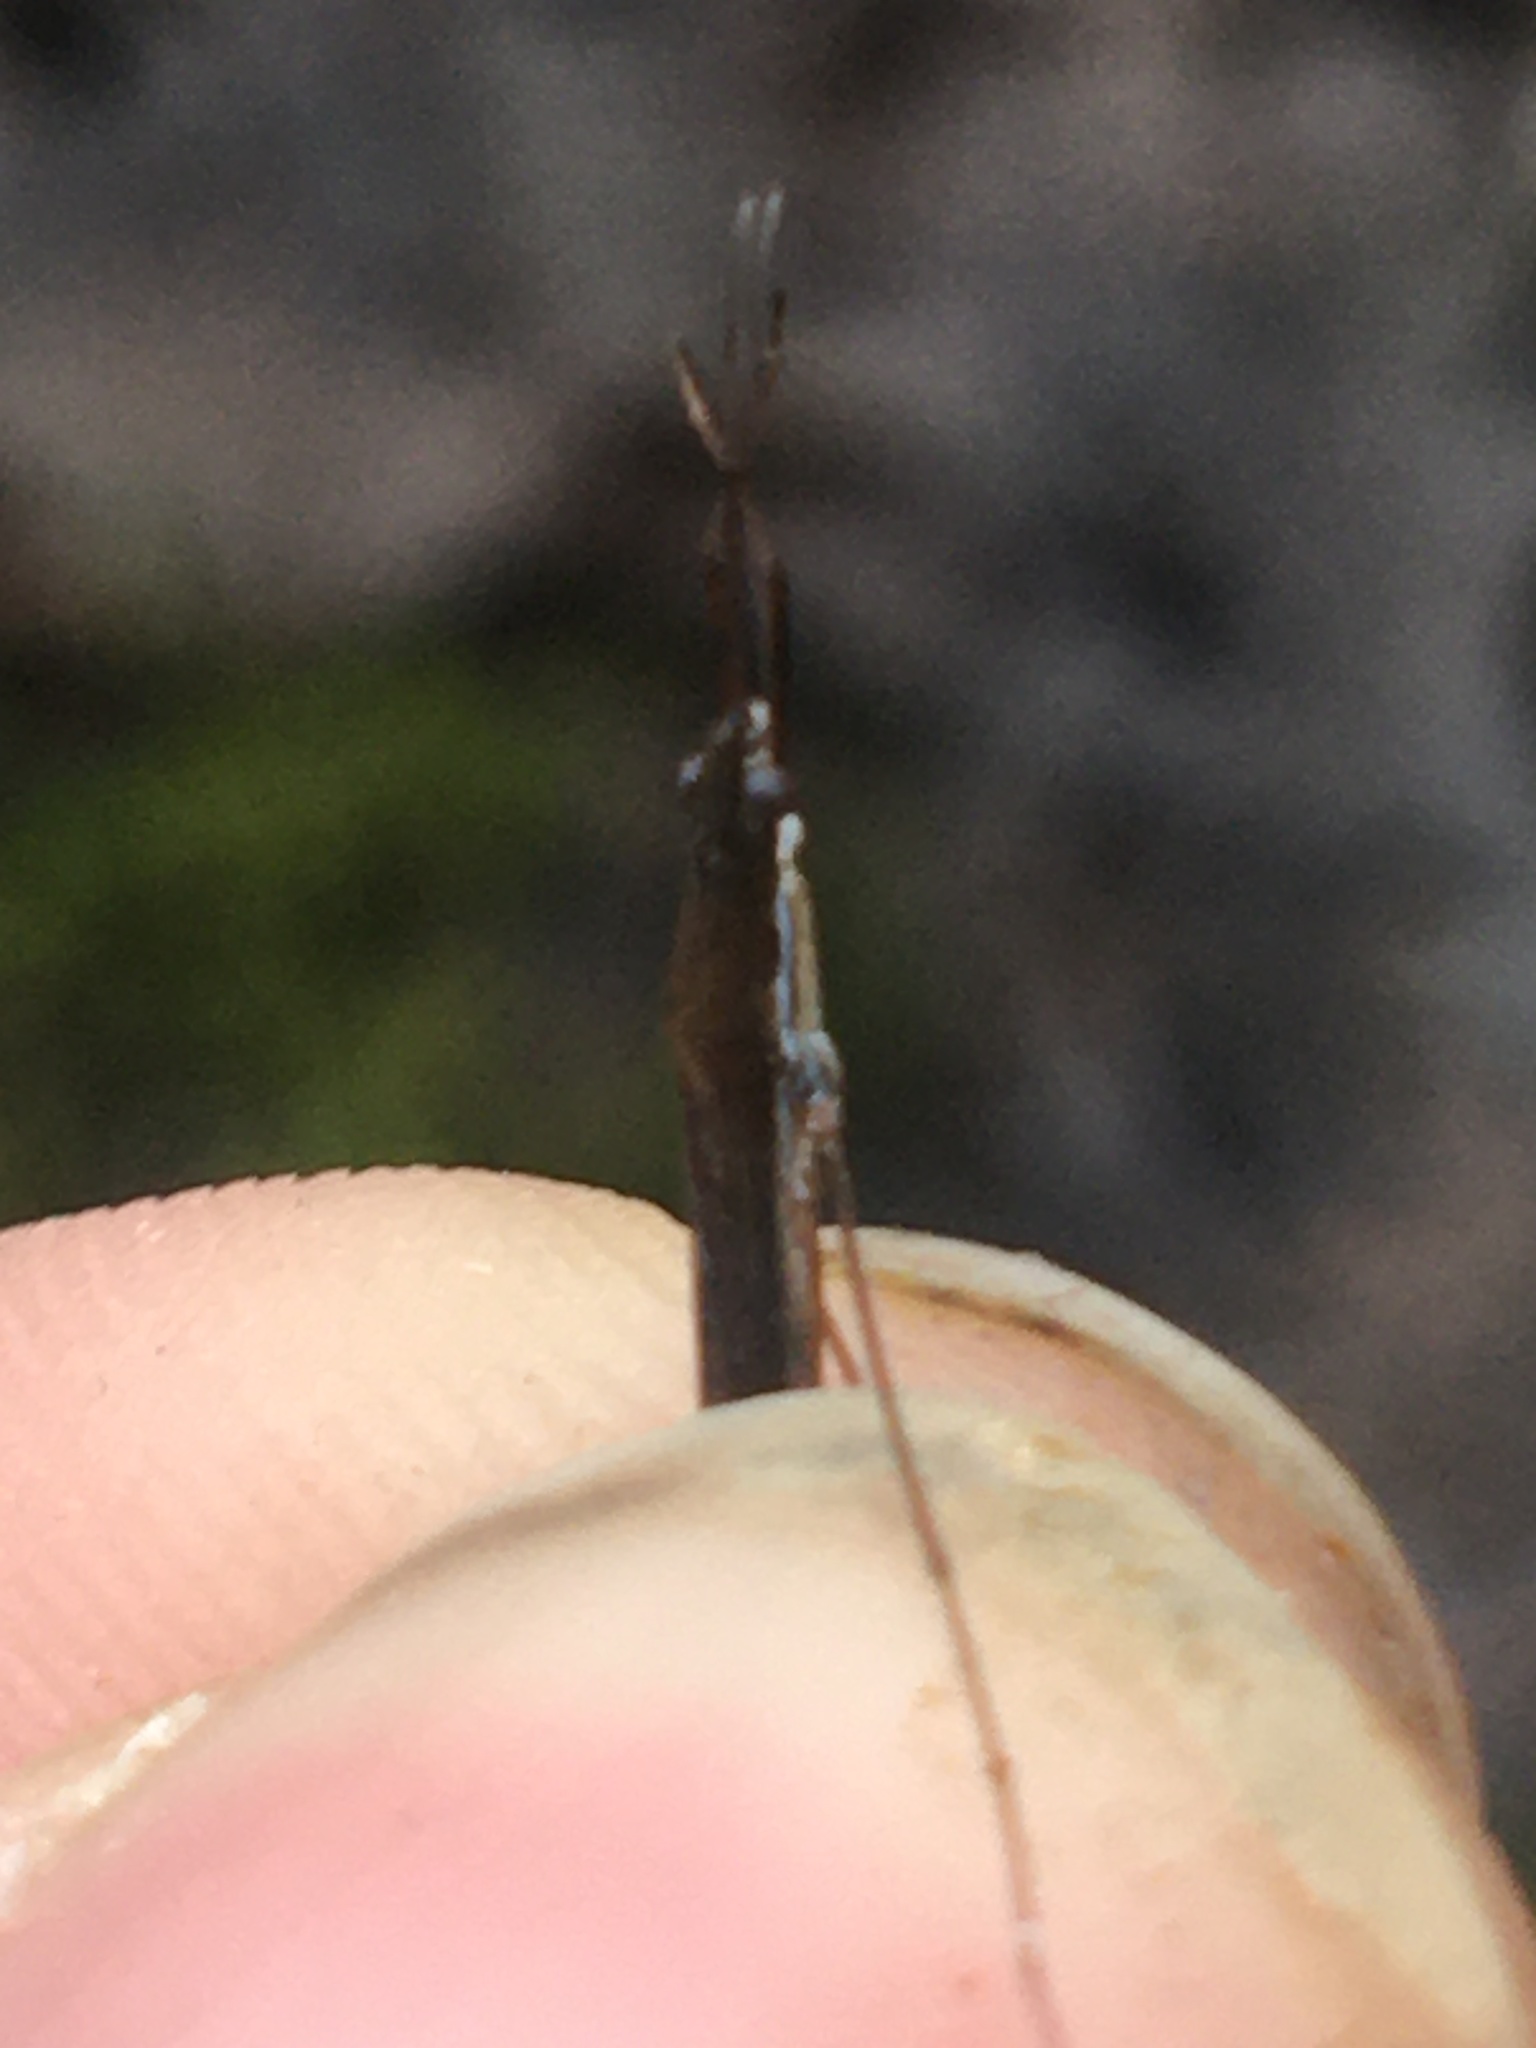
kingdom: Animalia
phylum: Arthropoda
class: Insecta
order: Hemiptera
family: Gerridae
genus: Limnoporus
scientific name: Limnoporus canaliculatus
